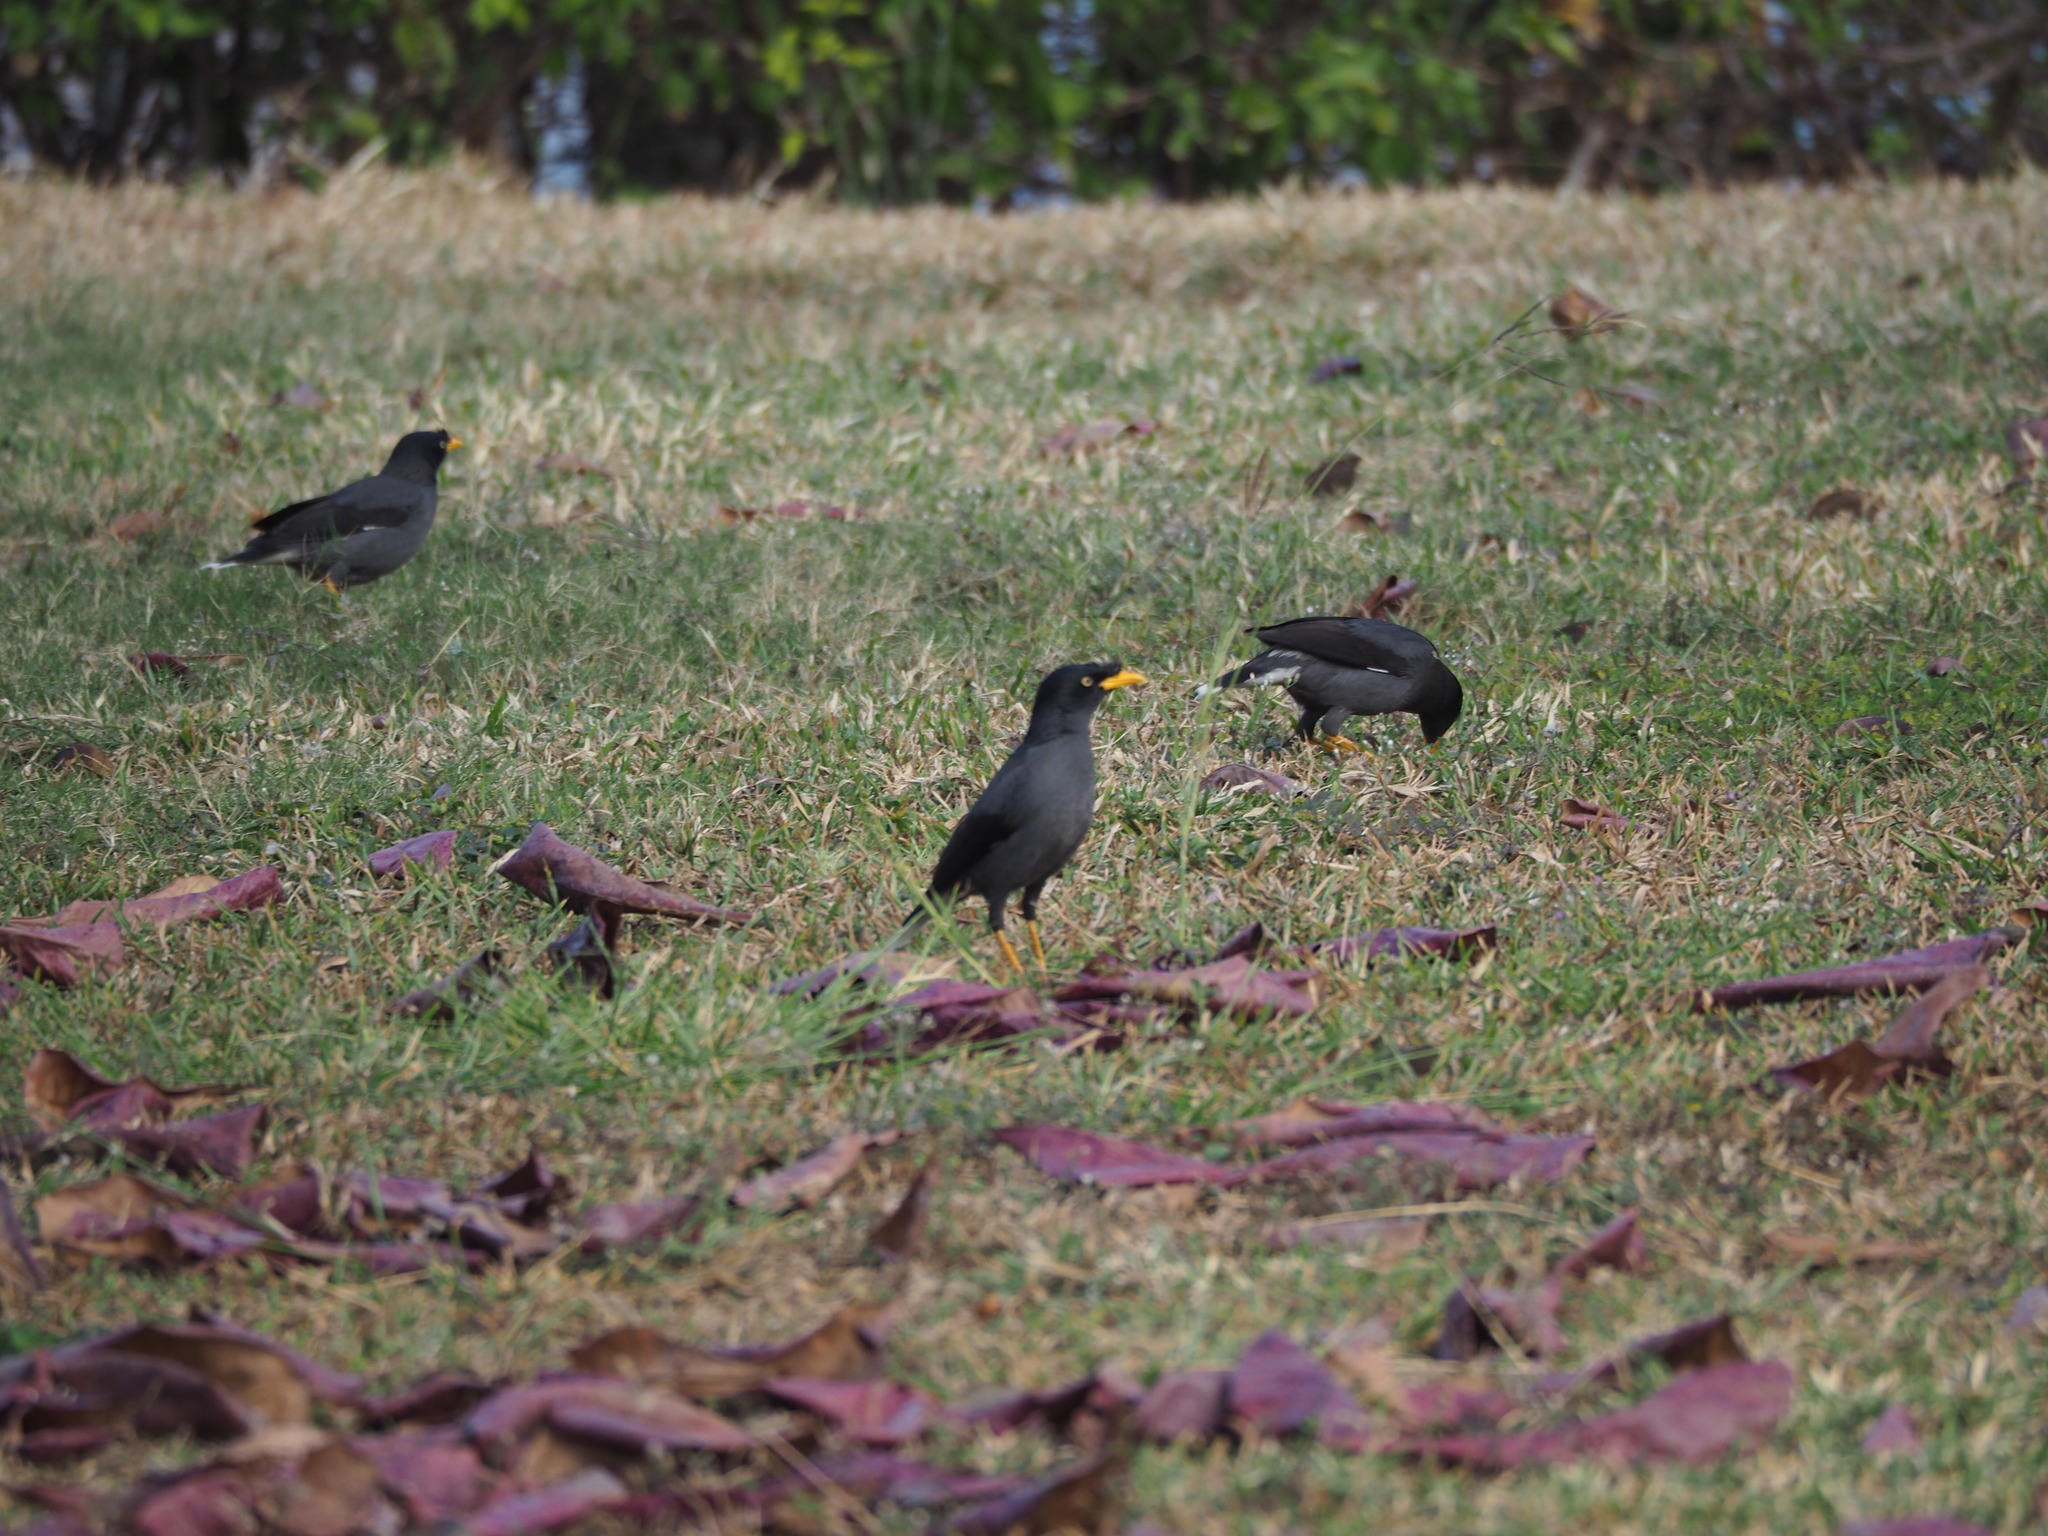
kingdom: Animalia
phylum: Chordata
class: Aves
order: Passeriformes
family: Sturnidae
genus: Acridotheres
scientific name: Acridotheres javanicus
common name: Javan myna
